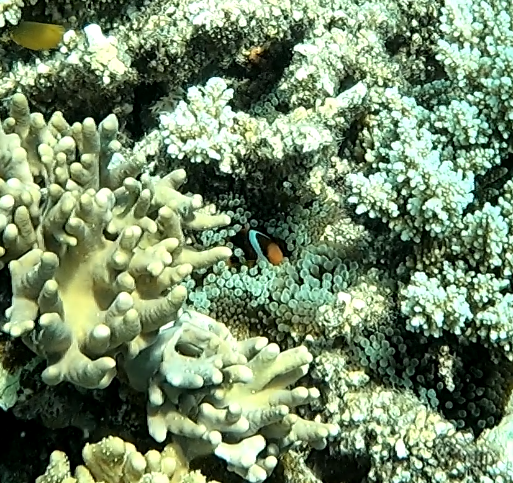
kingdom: Animalia
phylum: Chordata
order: Perciformes
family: Pomacentridae
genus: Amphiprion
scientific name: Amphiprion akindynos
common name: Barrier reef anemonefish
